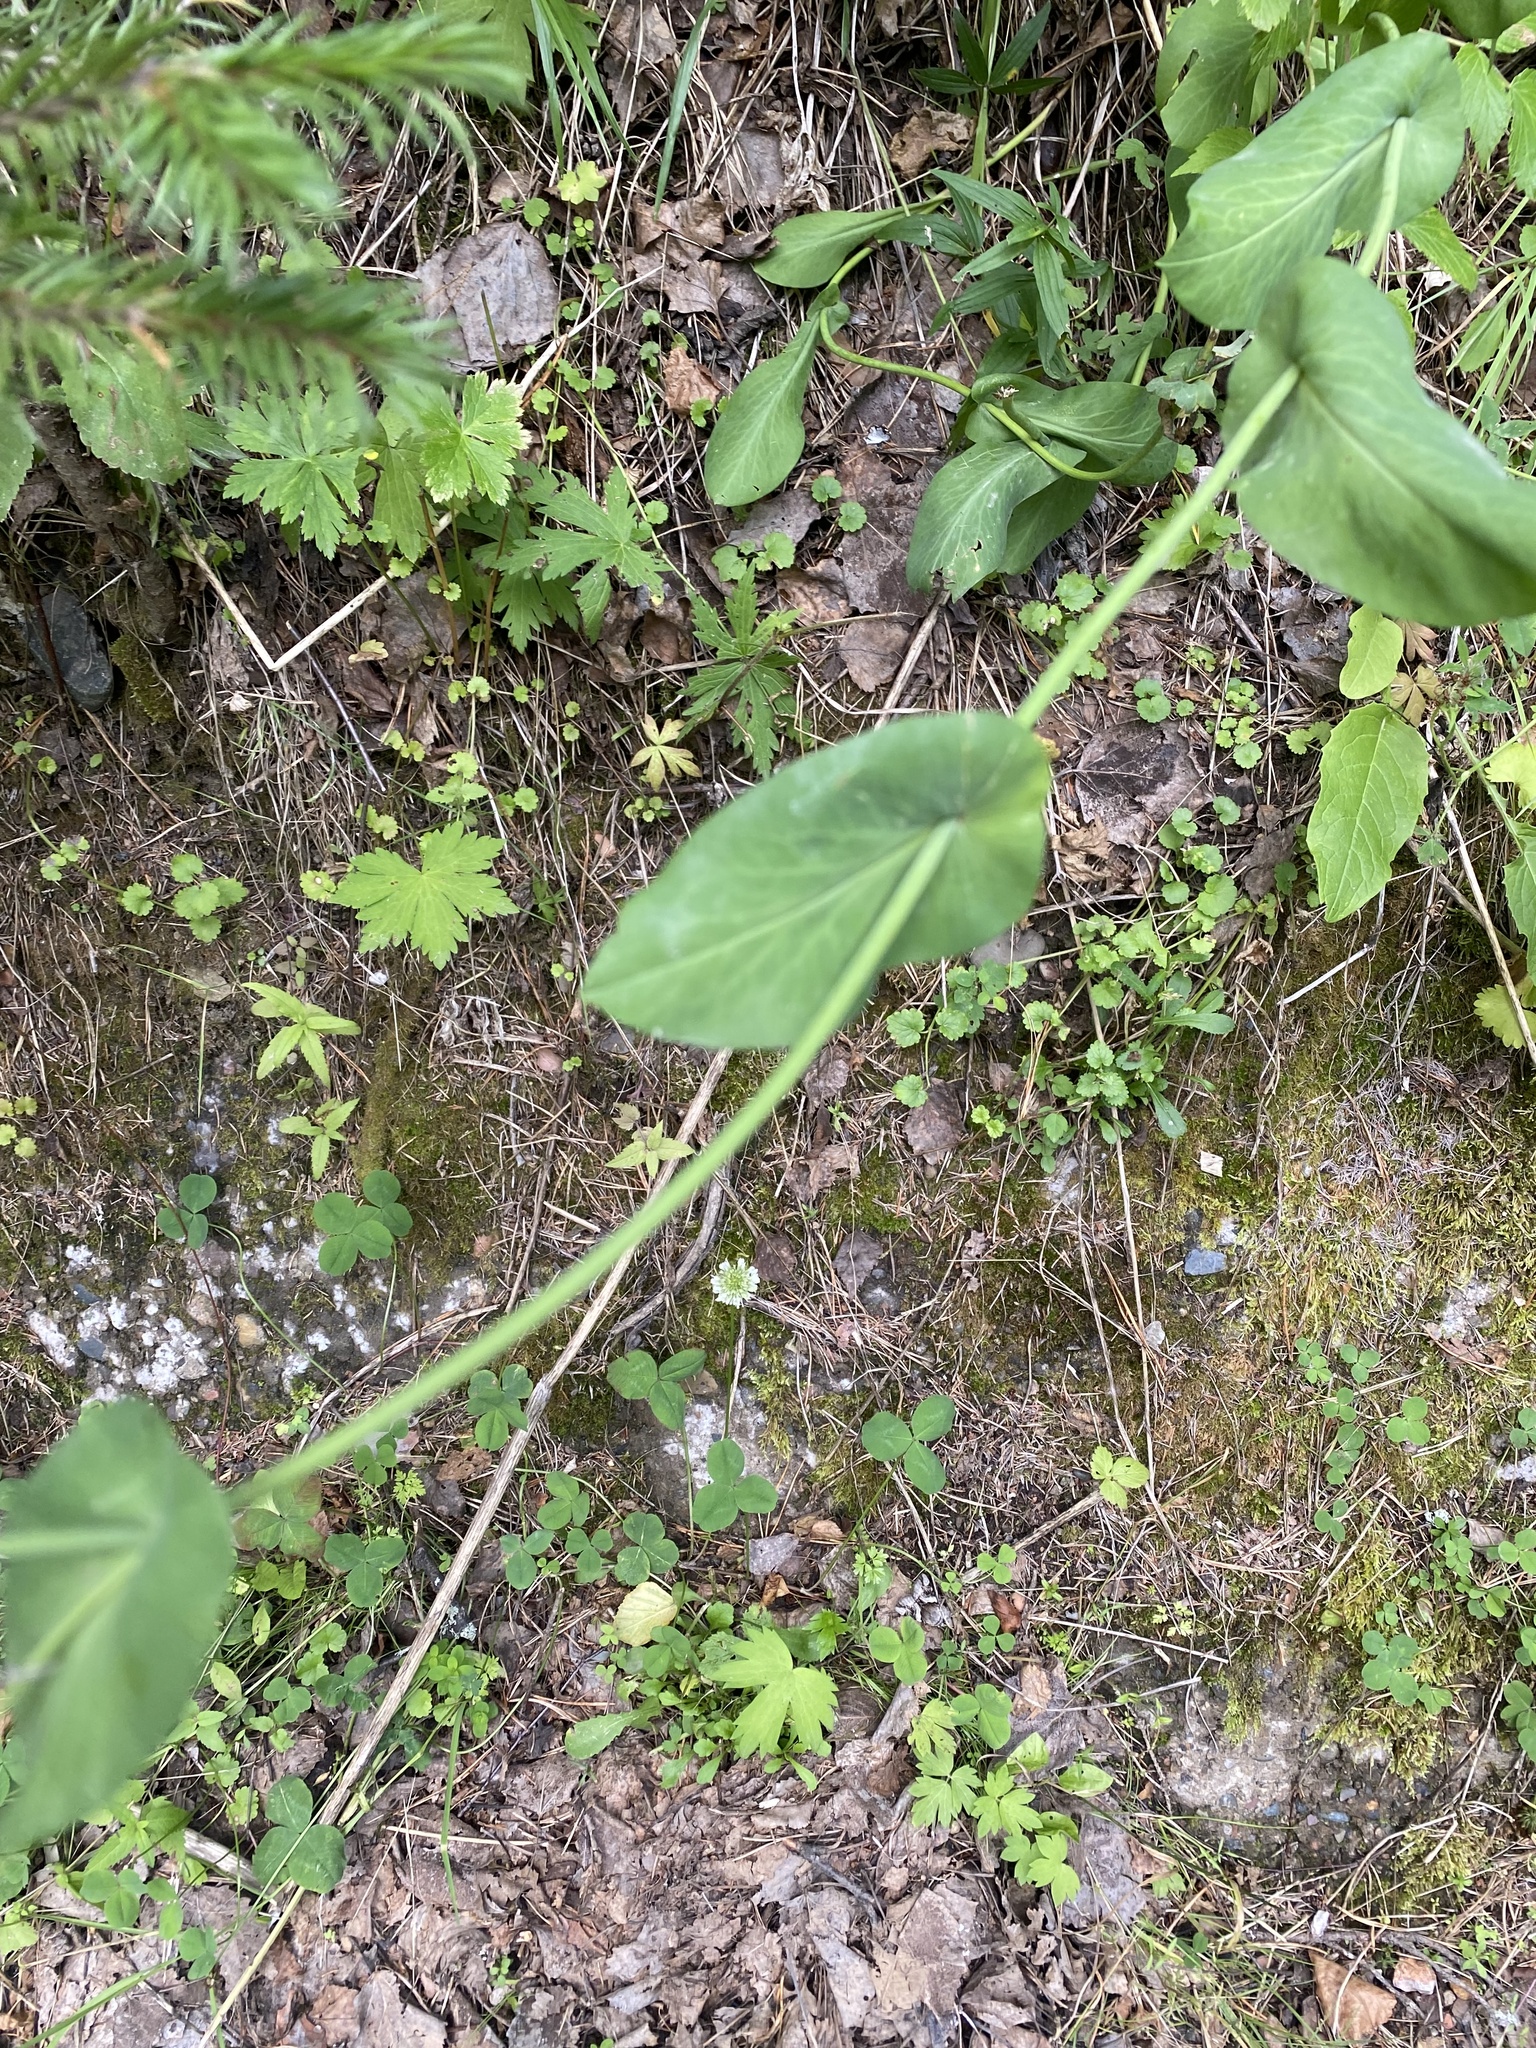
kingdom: Plantae
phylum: Tracheophyta
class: Magnoliopsida
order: Apiales
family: Apiaceae
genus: Bupleurum
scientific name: Bupleurum aureum
